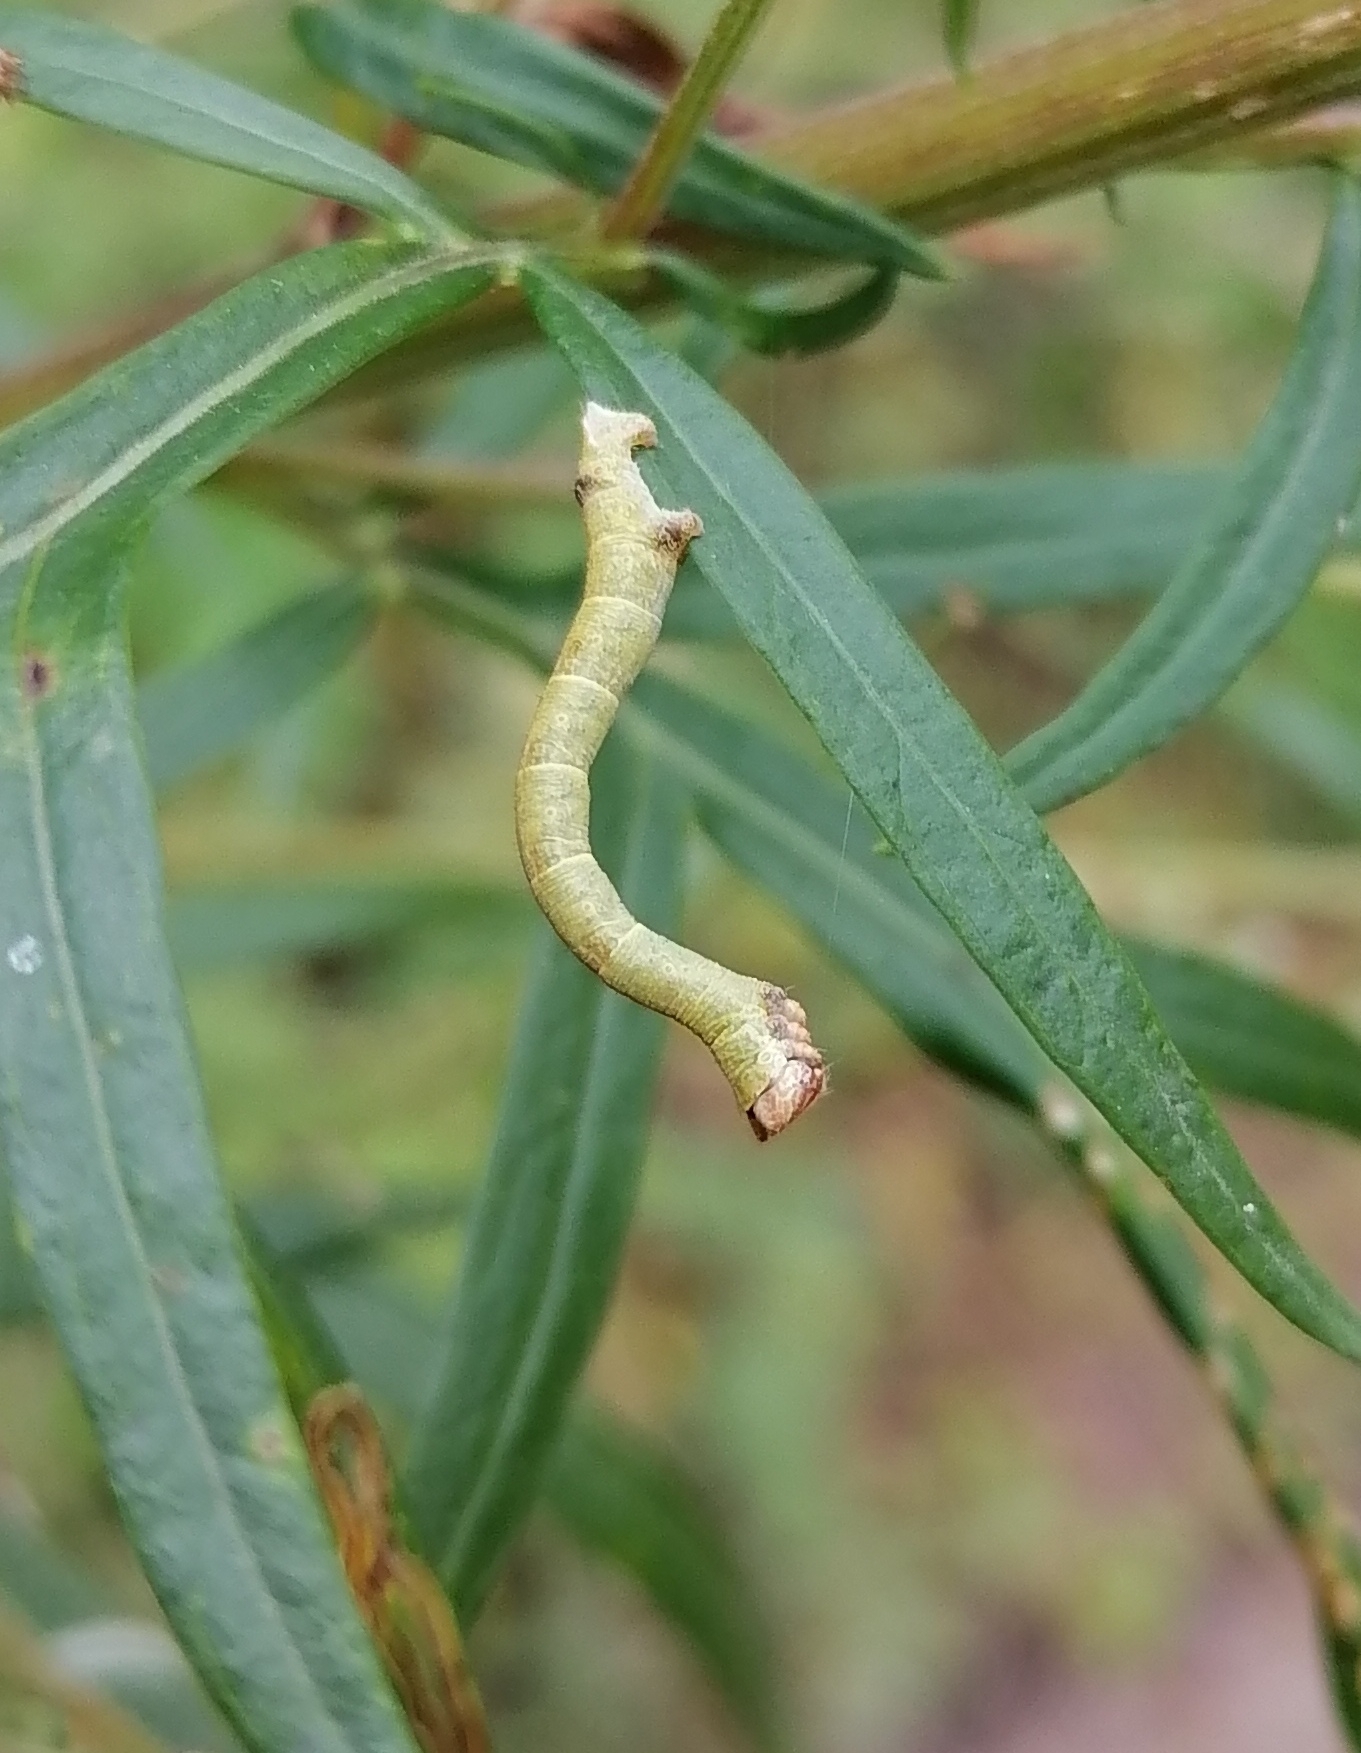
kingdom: Animalia
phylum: Arthropoda
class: Insecta
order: Lepidoptera
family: Geometridae
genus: Biston
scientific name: Biston betularia
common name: Peppered moth
